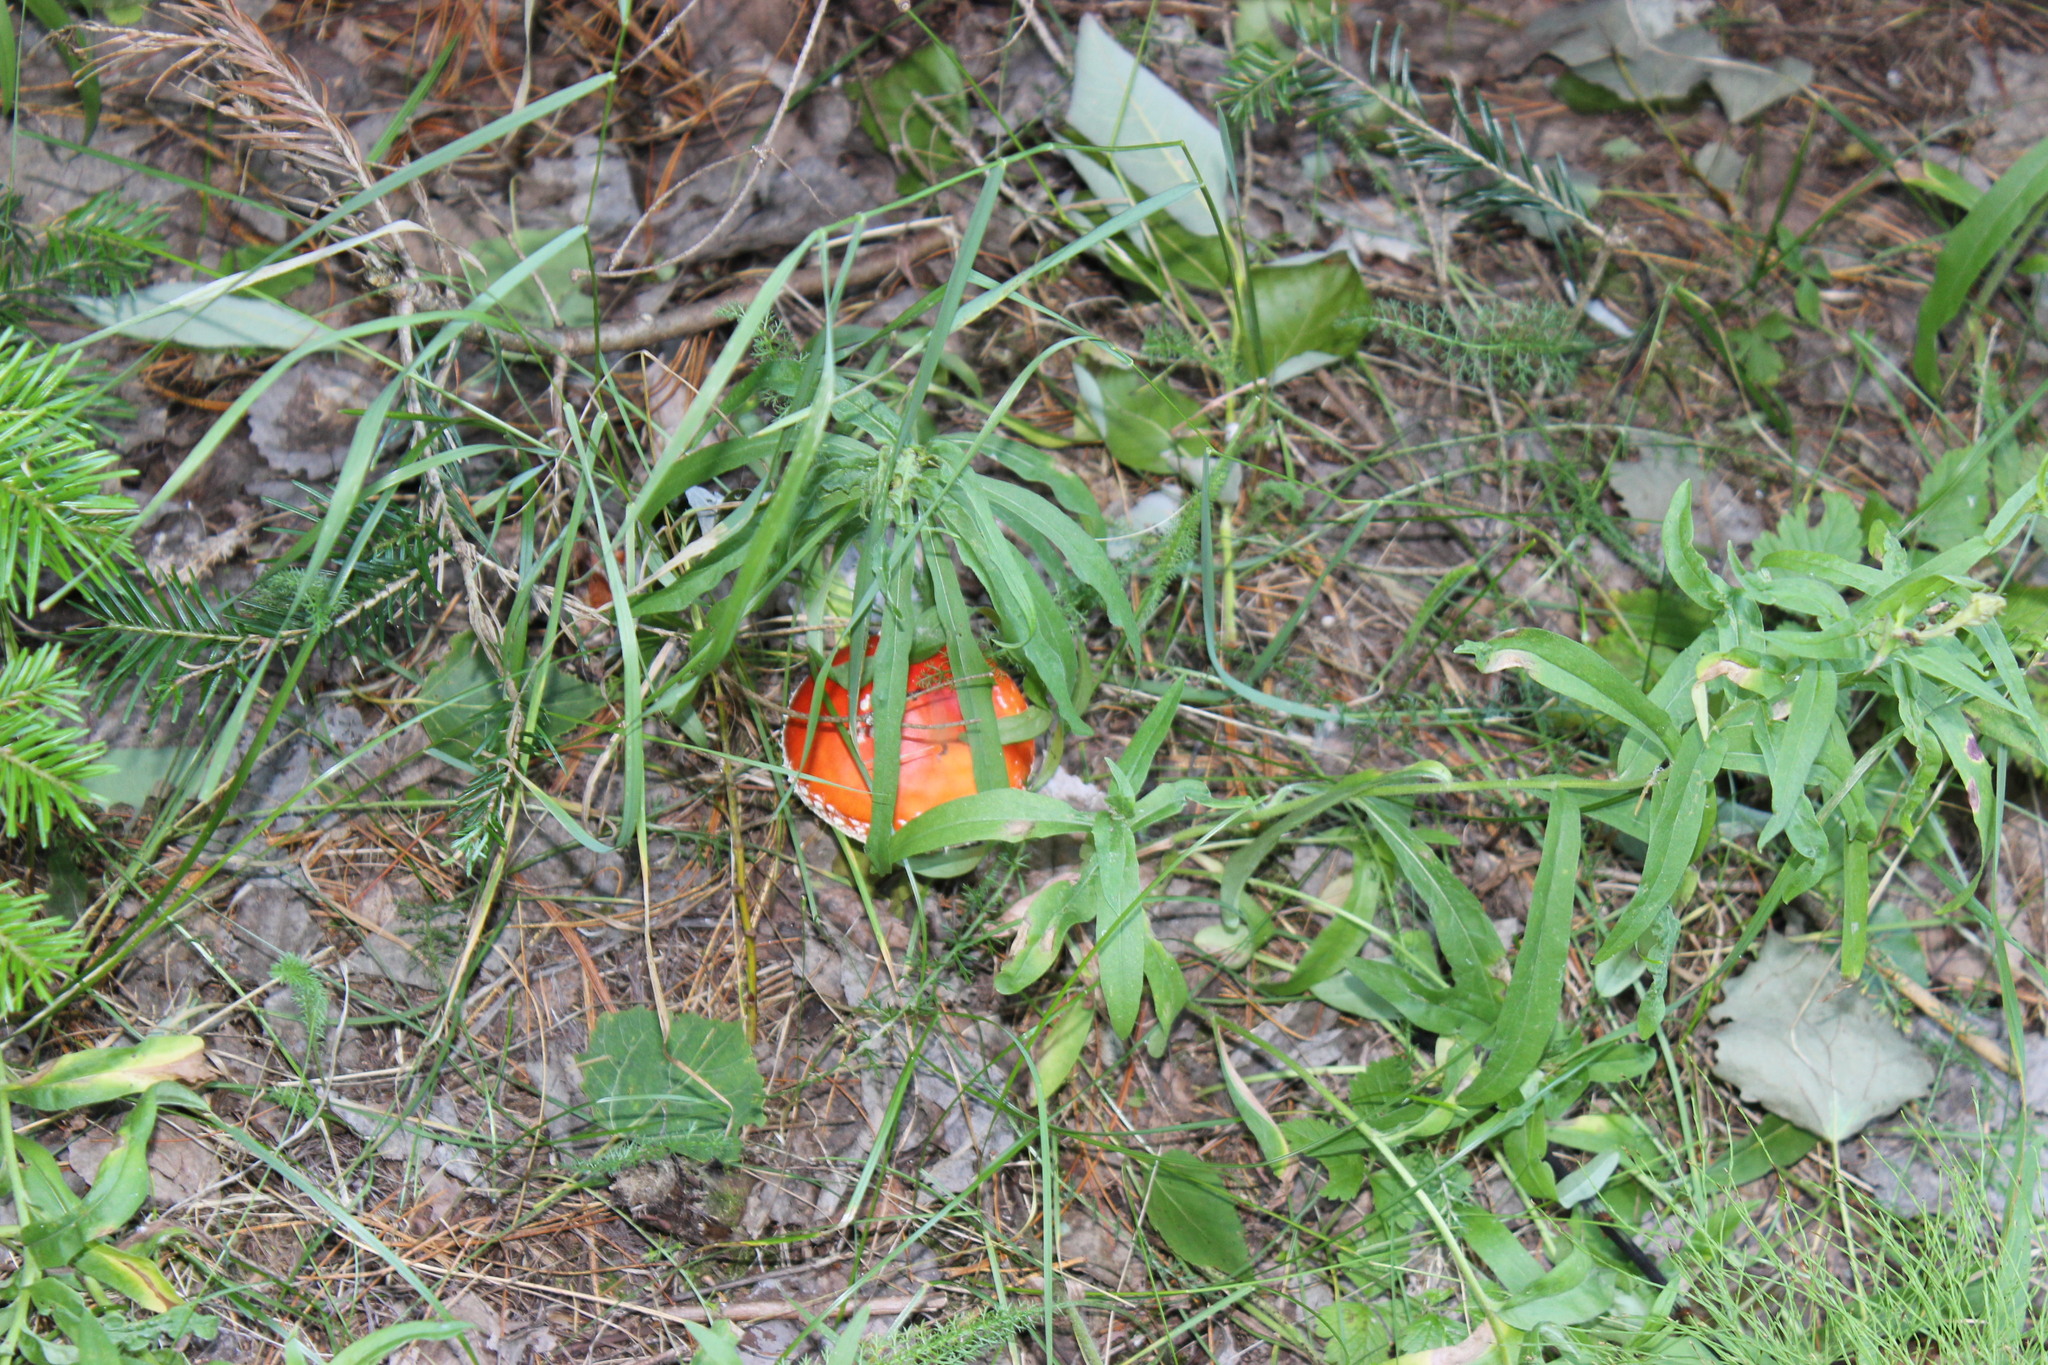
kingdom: Fungi
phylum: Basidiomycota
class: Agaricomycetes
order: Agaricales
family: Amanitaceae
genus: Amanita
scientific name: Amanita muscaria
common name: Fly agaric
